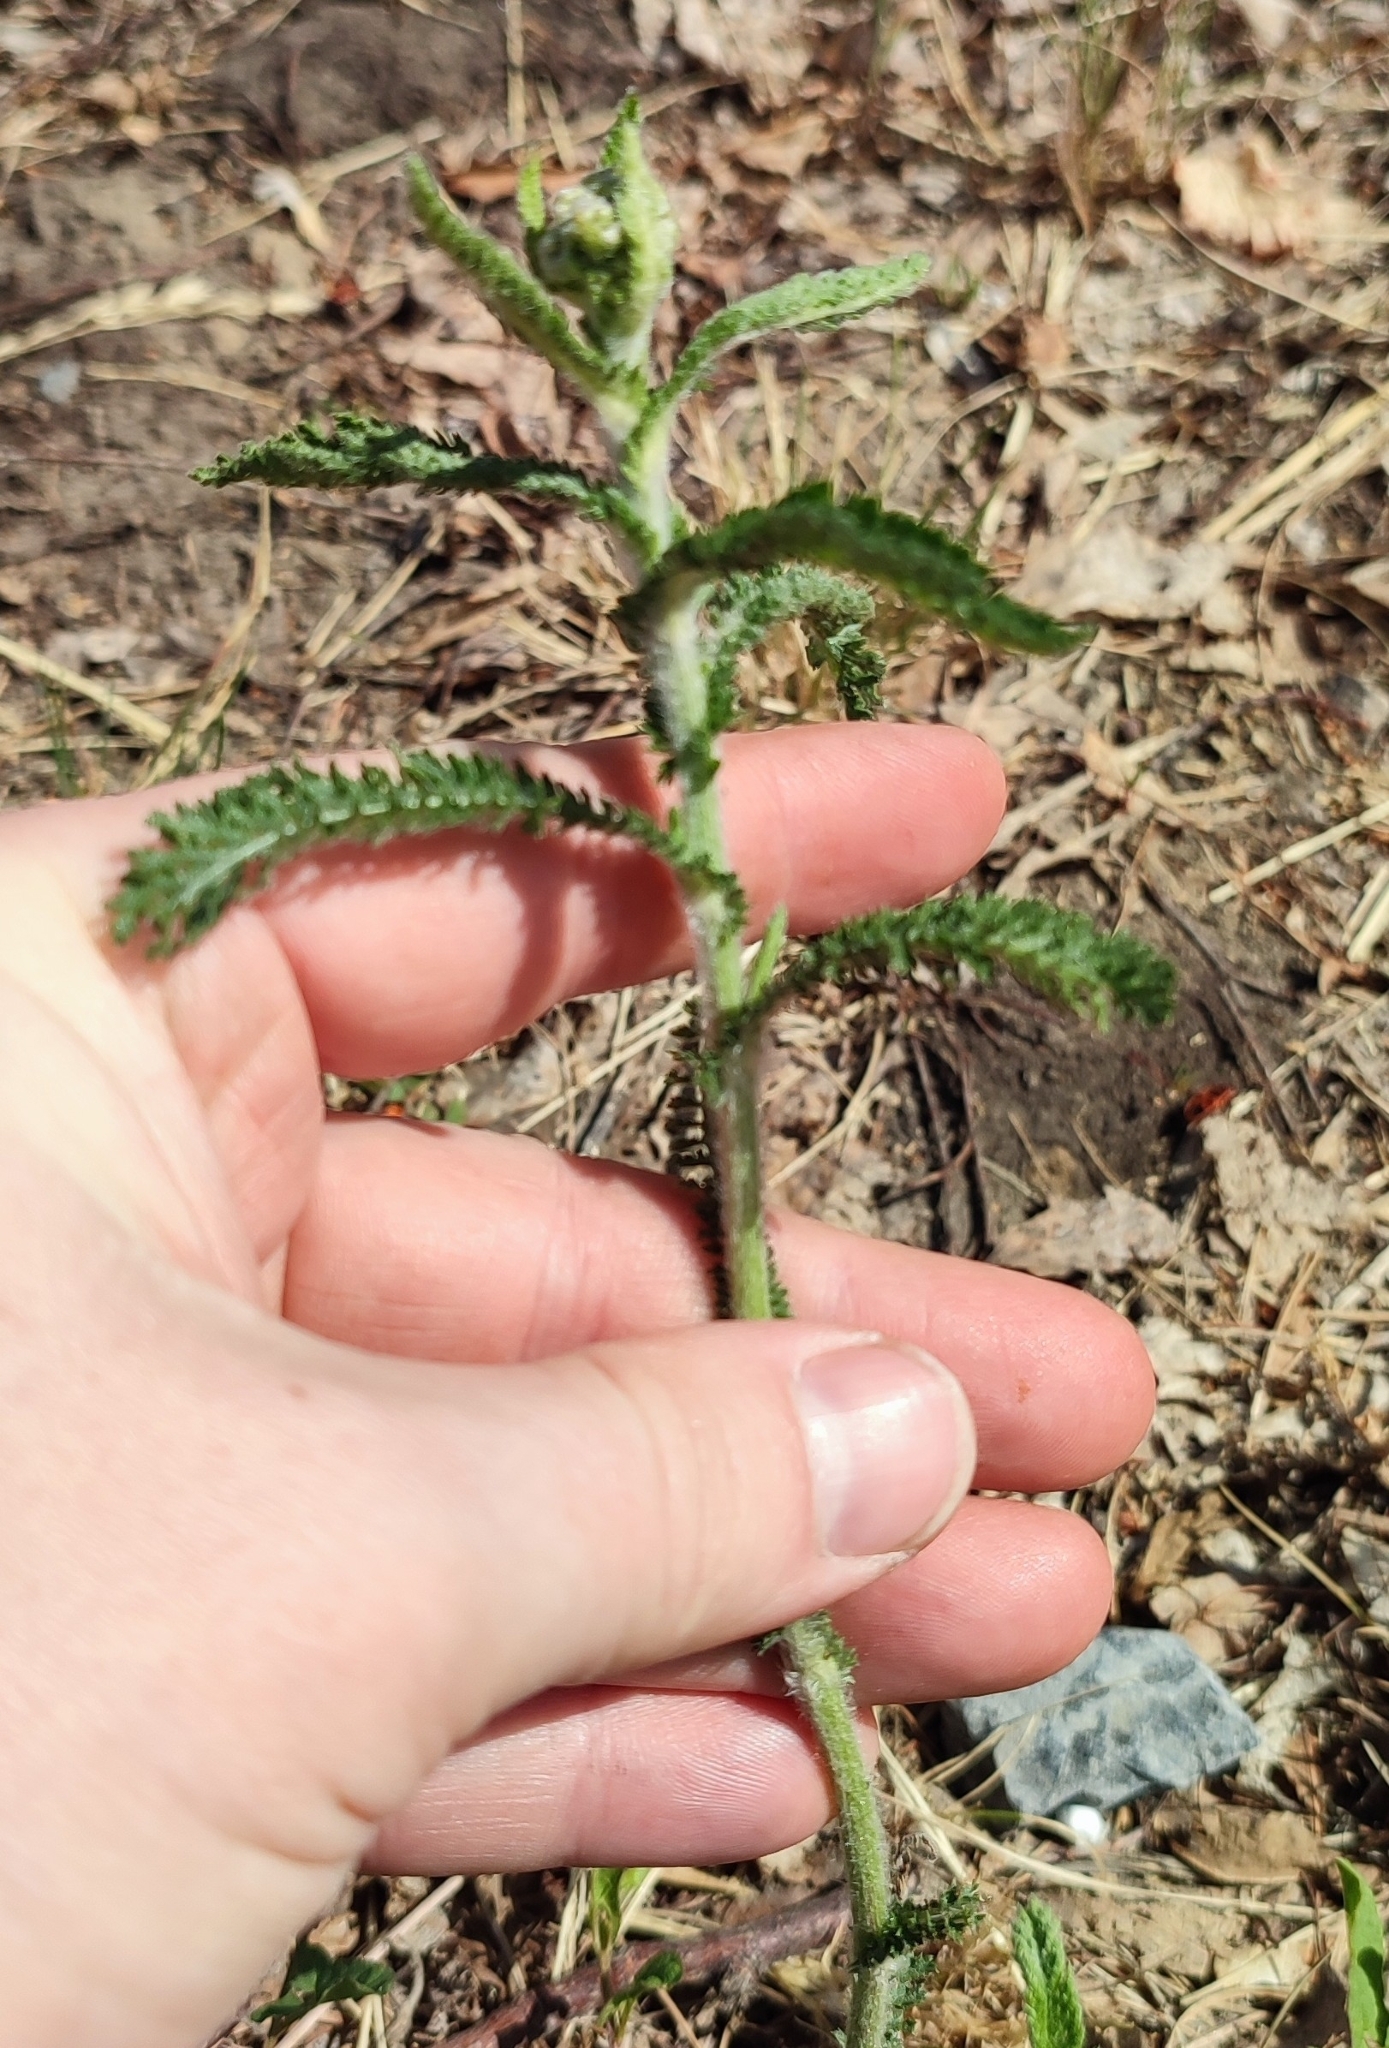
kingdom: Plantae
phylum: Tracheophyta
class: Magnoliopsida
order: Asterales
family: Asteraceae
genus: Achillea
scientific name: Achillea millefolium
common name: Yarrow
